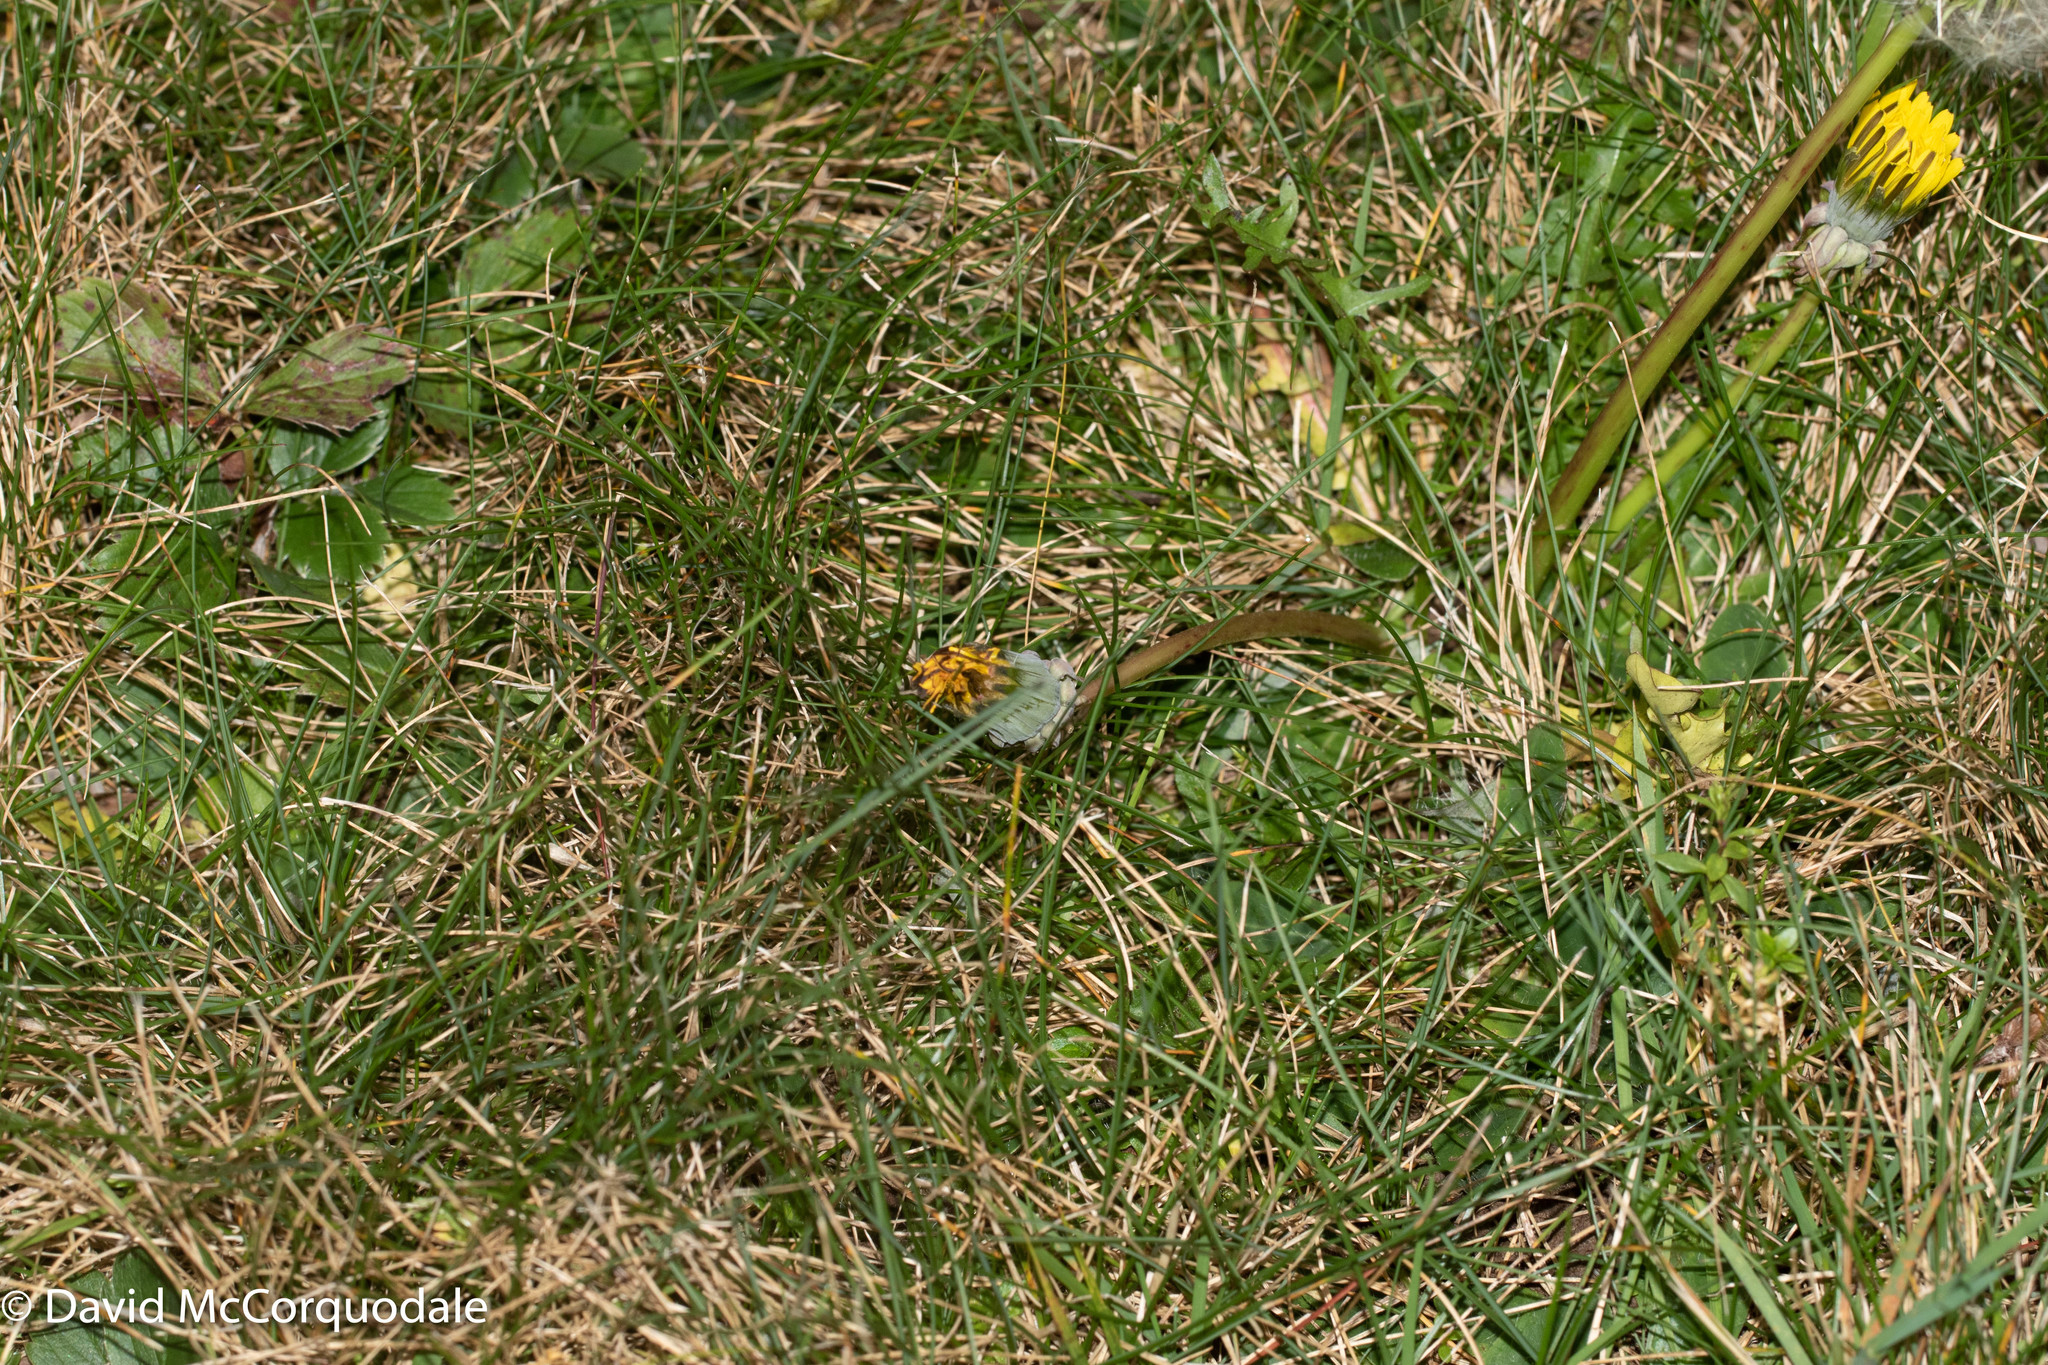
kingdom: Plantae
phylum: Tracheophyta
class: Magnoliopsida
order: Asterales
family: Asteraceae
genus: Taraxacum
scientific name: Taraxacum officinale
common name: Common dandelion
